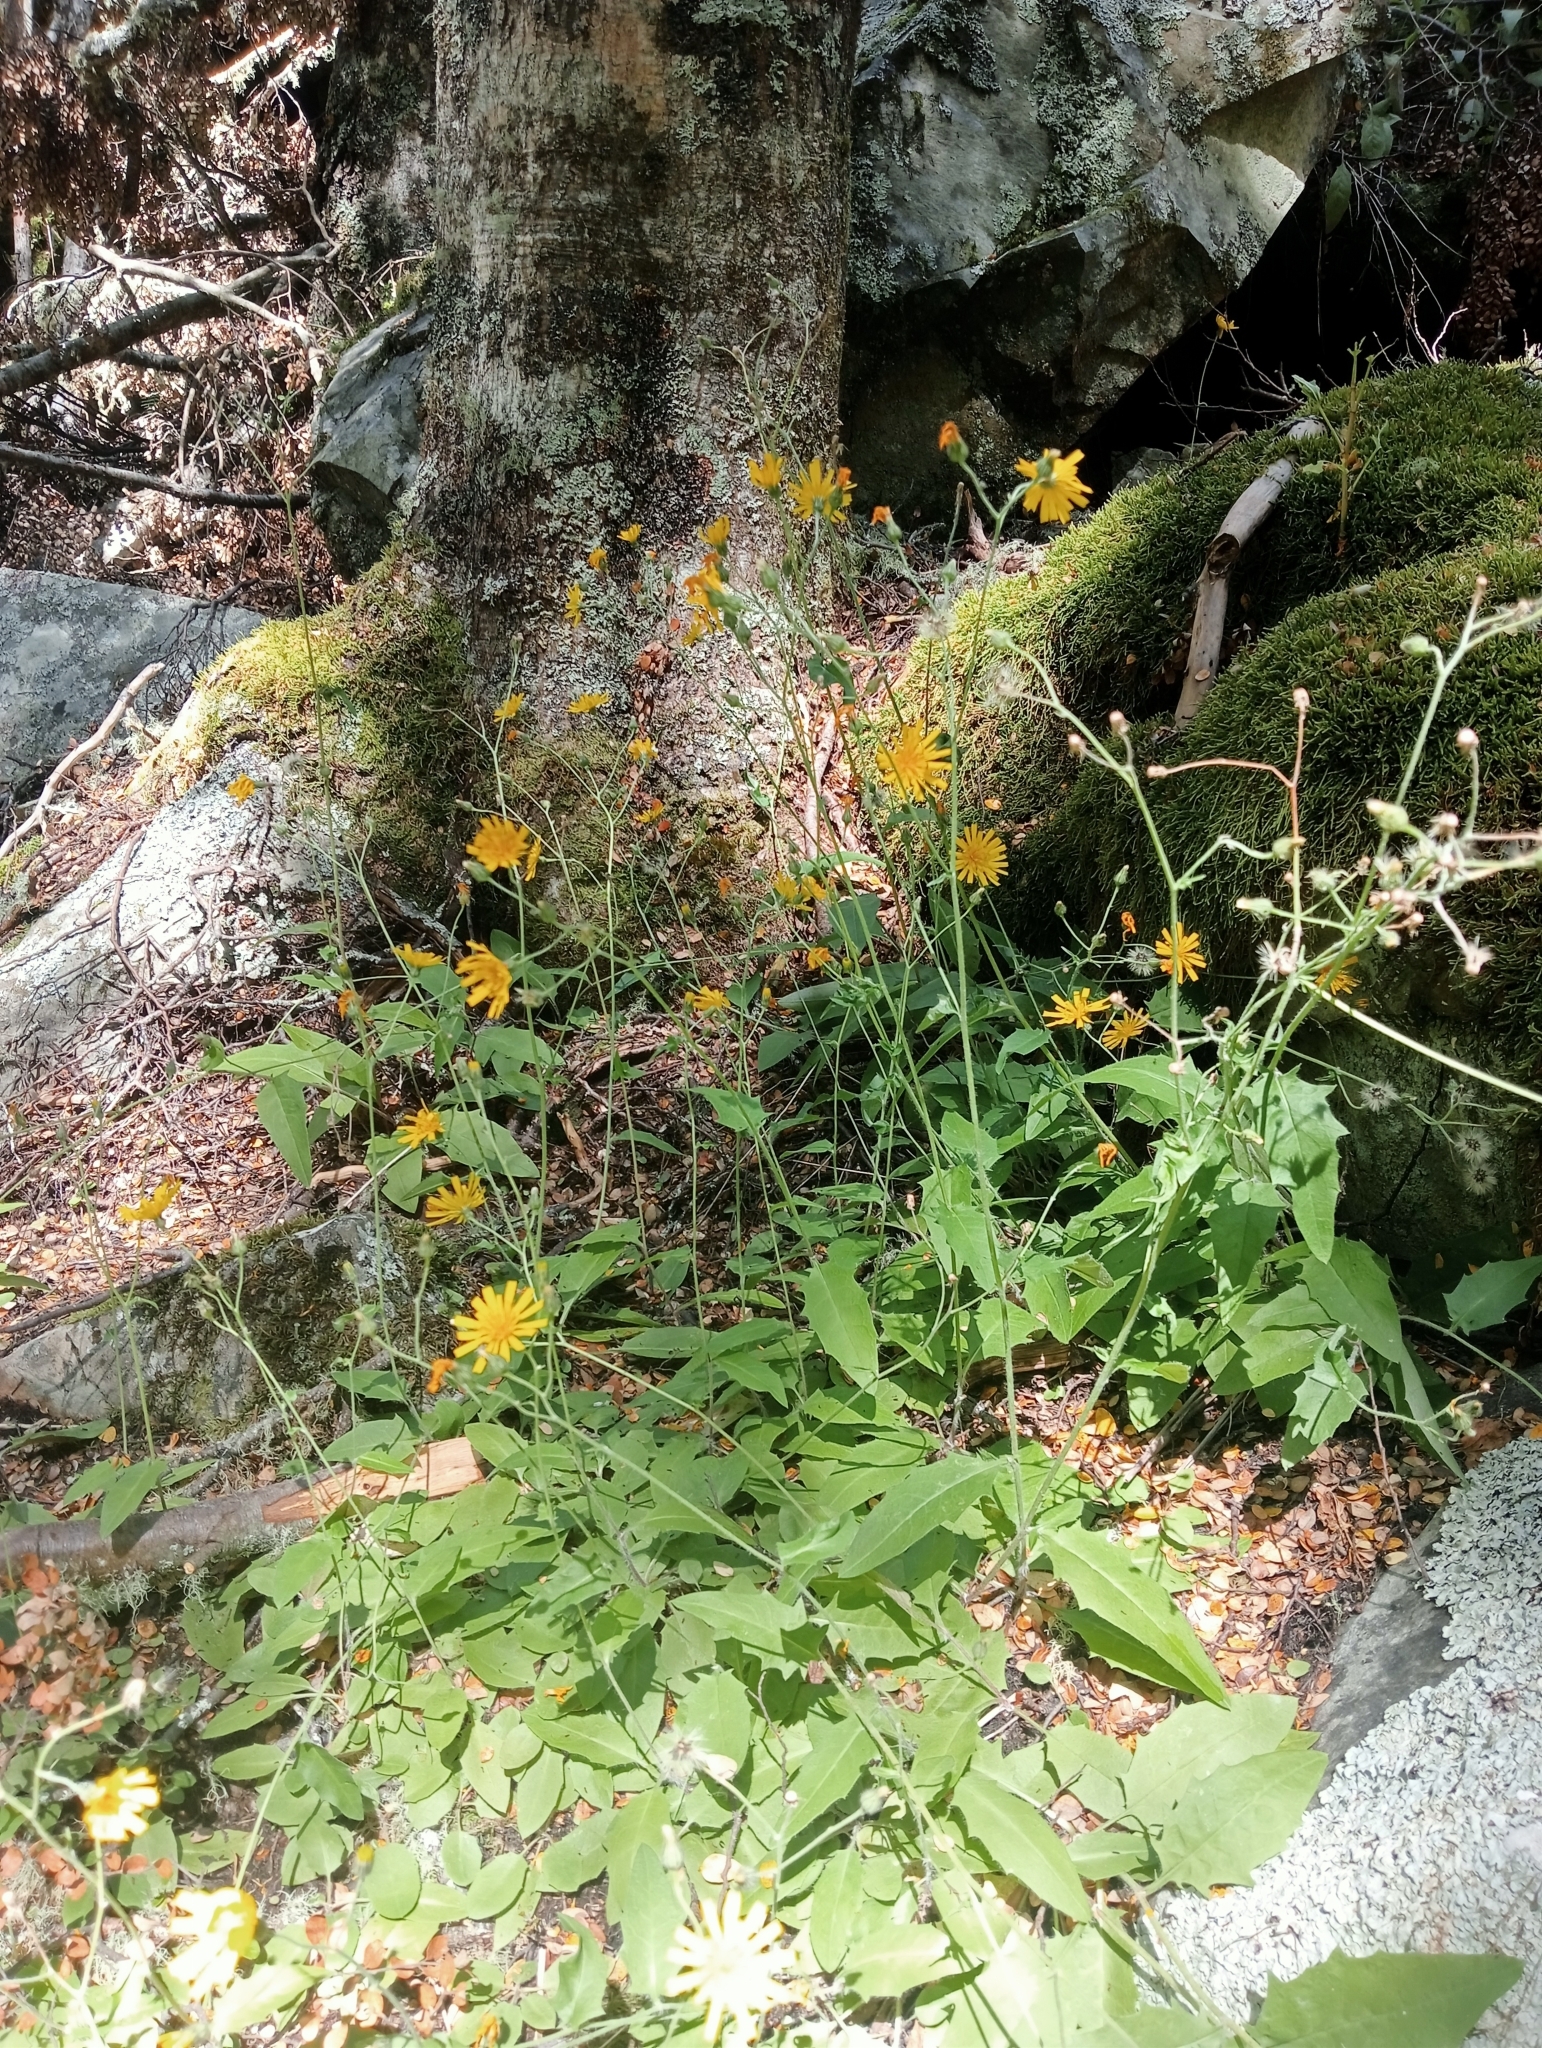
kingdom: Plantae
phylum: Tracheophyta
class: Magnoliopsida
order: Asterales
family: Asteraceae
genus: Hieracium
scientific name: Hieracium lepidulum
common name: Irregular-toothed hawkweed
